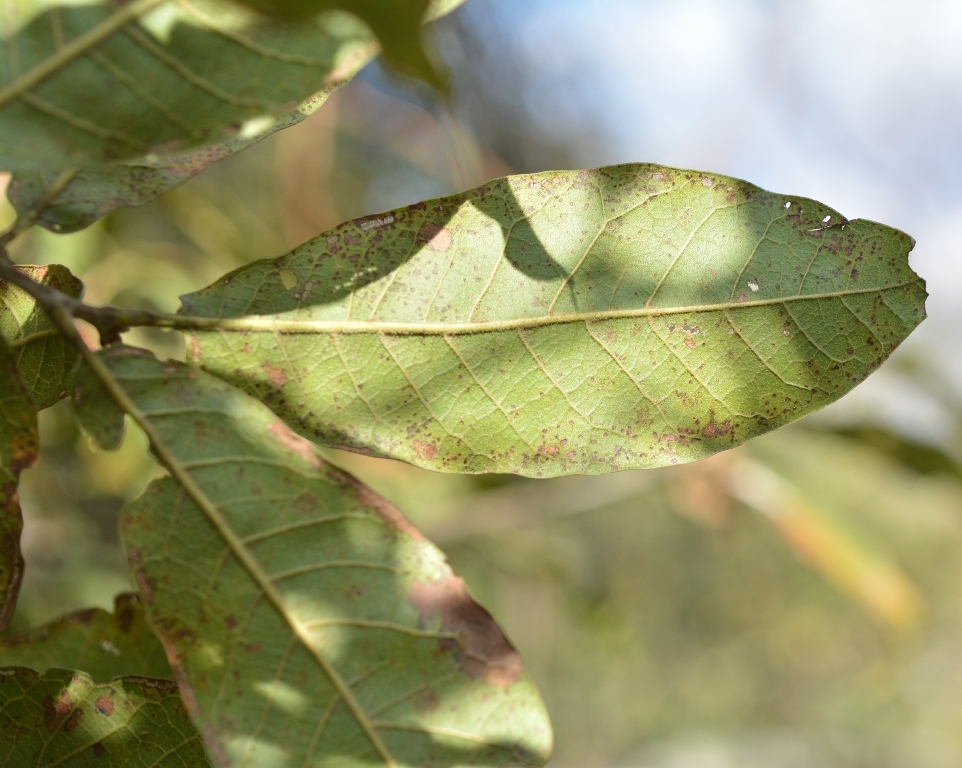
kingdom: Plantae
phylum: Tracheophyta
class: Magnoliopsida
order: Fagales
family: Fagaceae
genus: Quercus
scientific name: Quercus crispipilis
